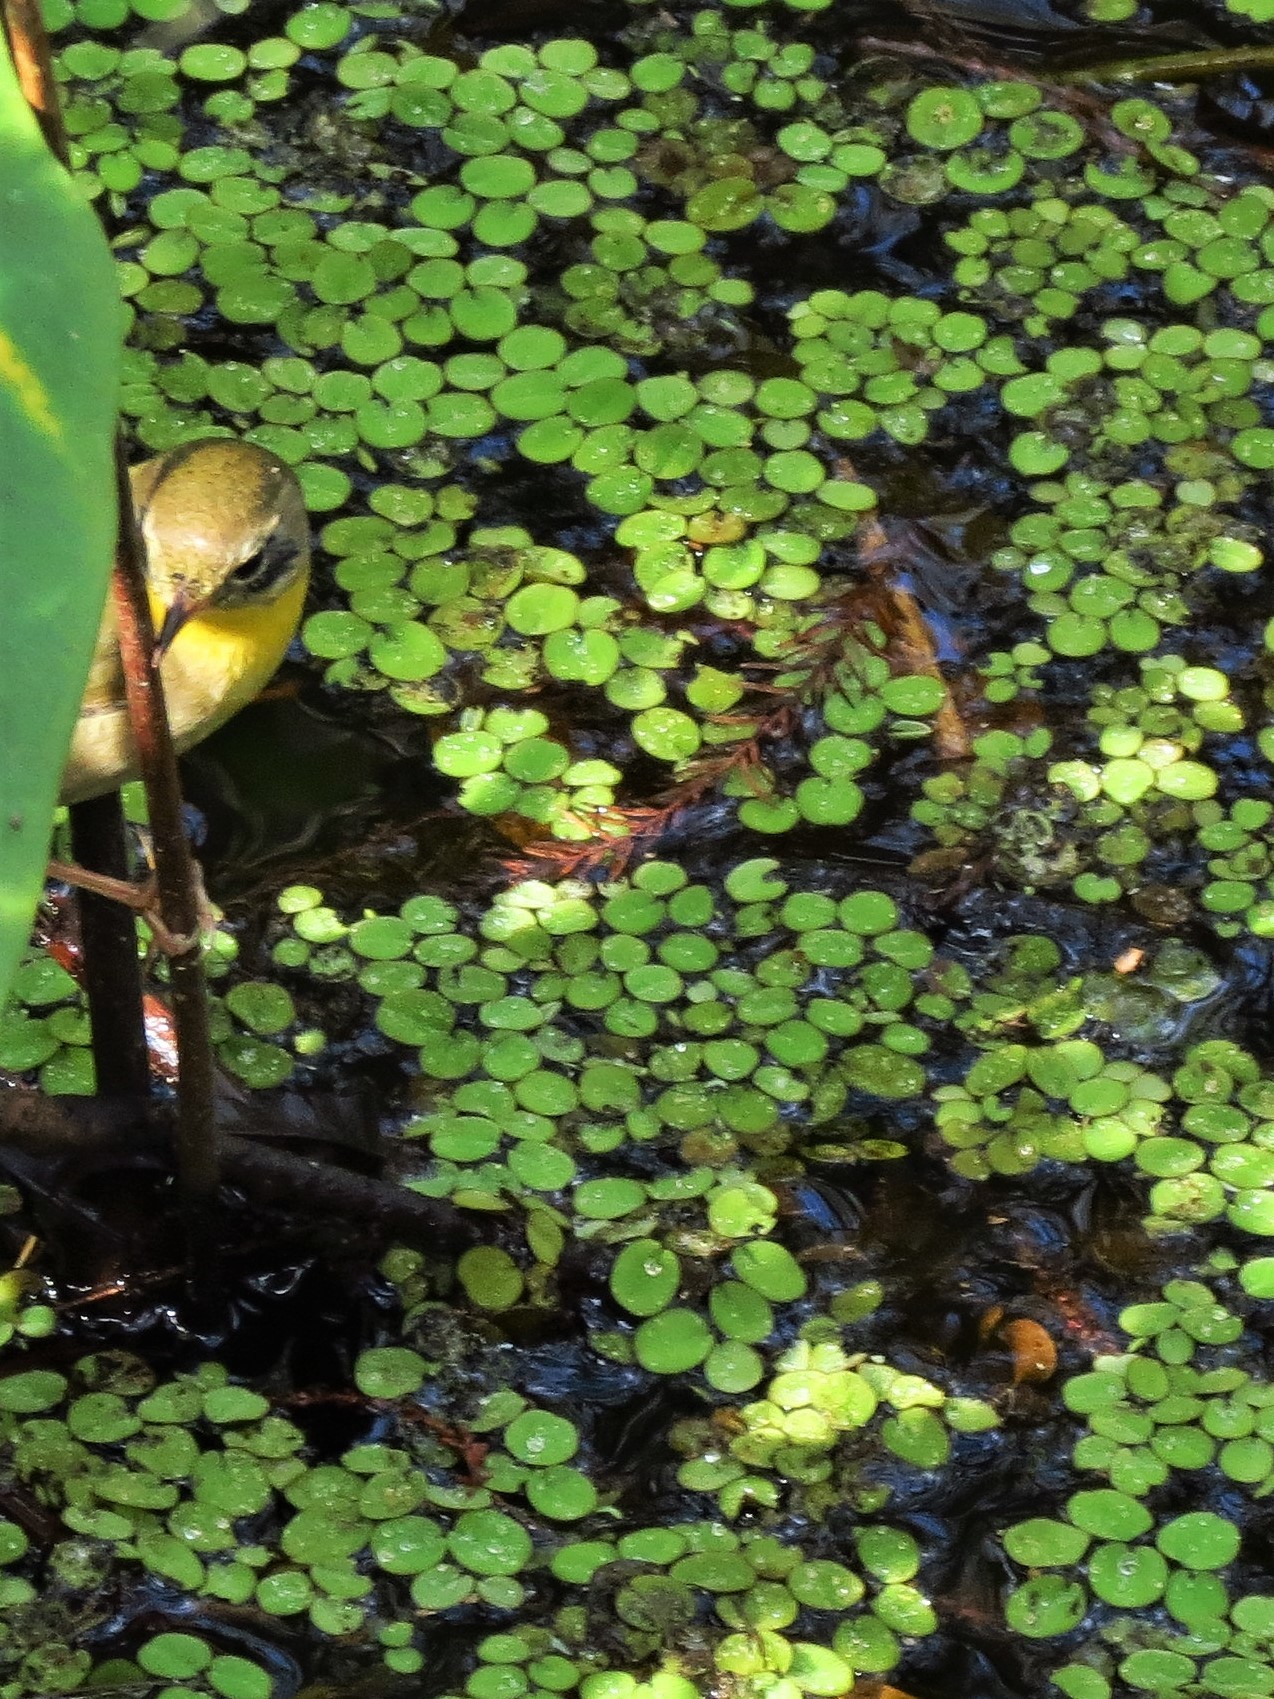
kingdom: Plantae
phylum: Tracheophyta
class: Polypodiopsida
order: Salviniales
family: Salviniaceae
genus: Salvinia
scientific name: Salvinia minima
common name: Water spangles
